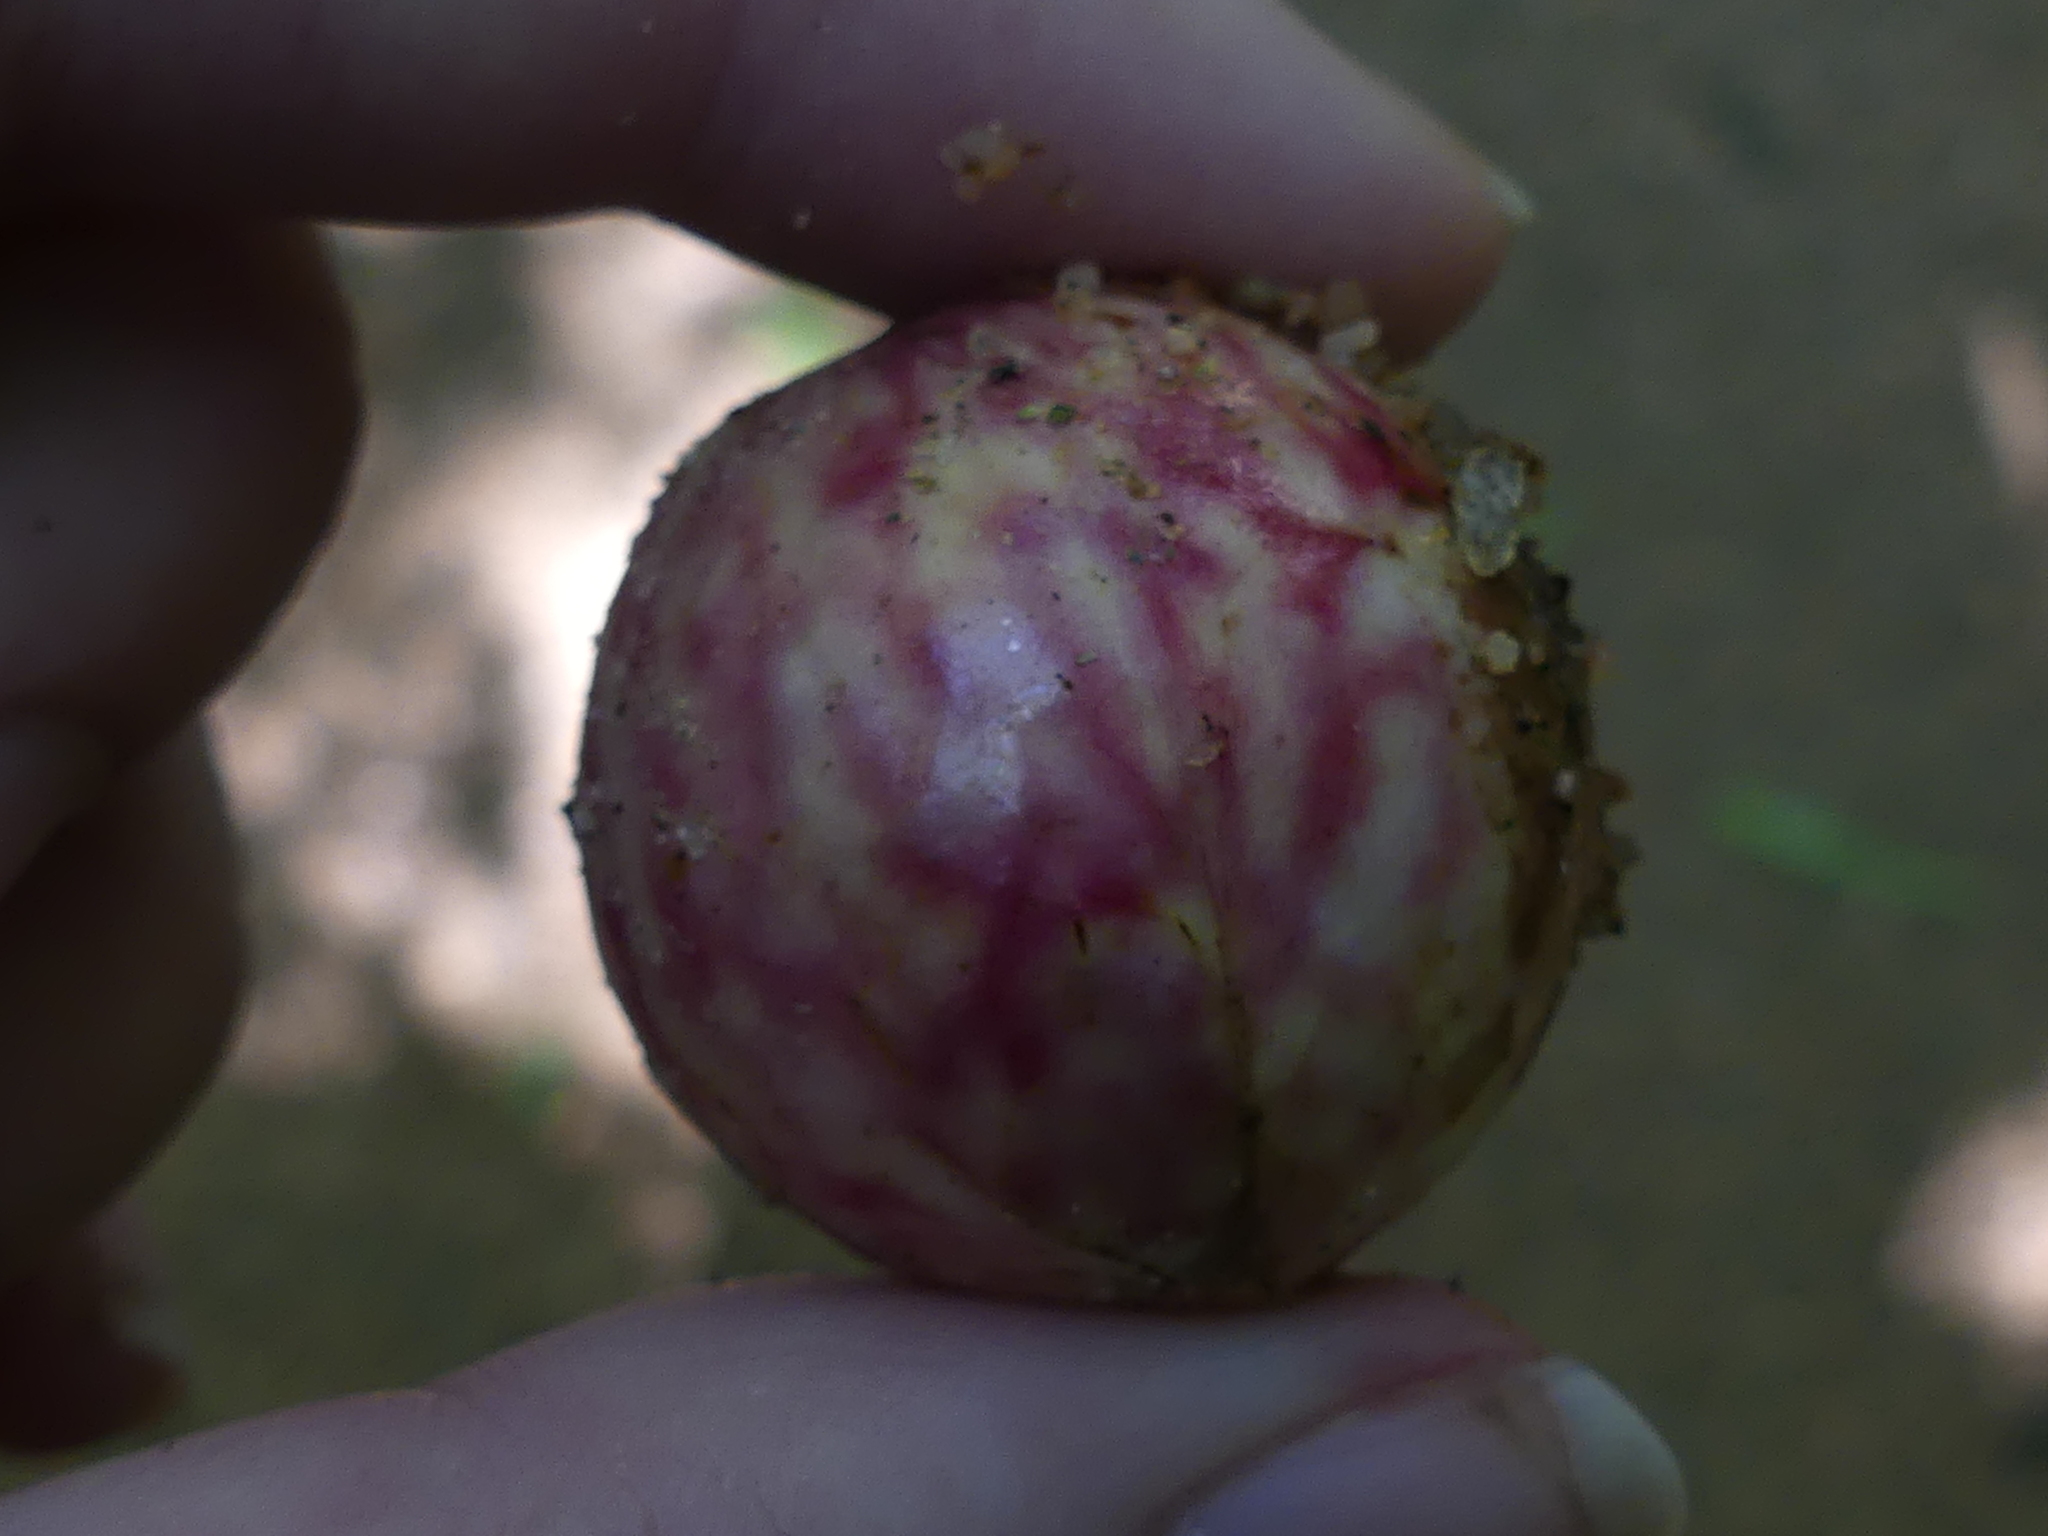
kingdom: Animalia
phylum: Arthropoda
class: Insecta
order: Hymenoptera
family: Cynipidae
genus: Amphibolips
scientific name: Amphibolips
